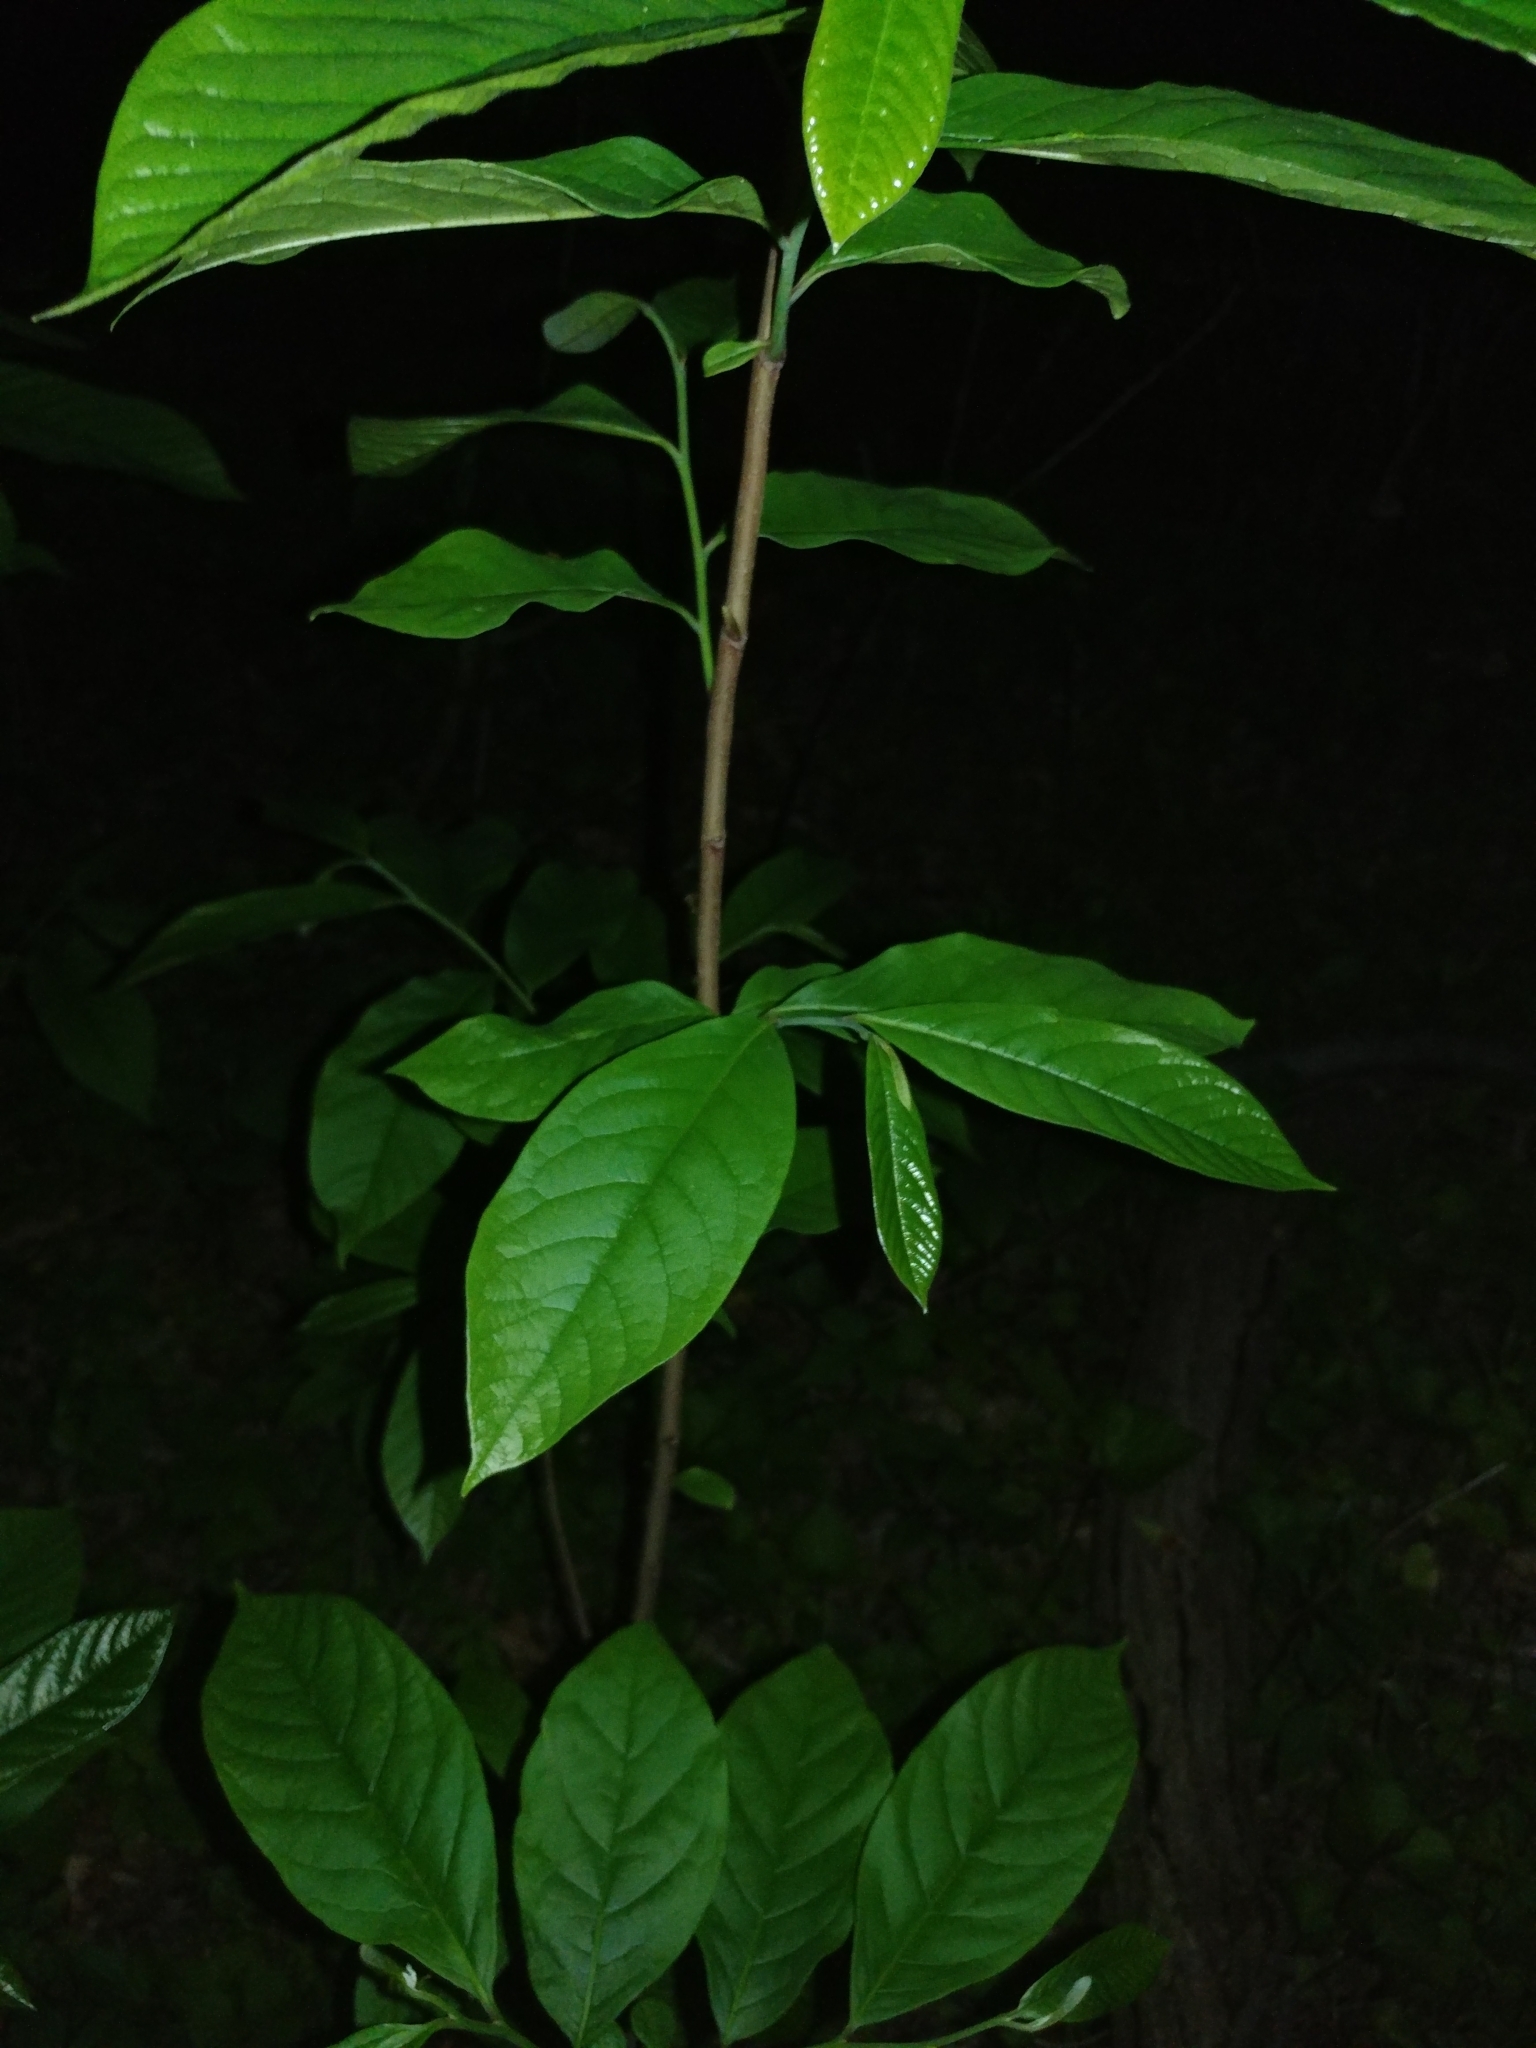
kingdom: Plantae
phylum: Tracheophyta
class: Magnoliopsida
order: Magnoliales
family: Annonaceae
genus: Asimina
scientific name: Asimina triloba
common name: Dog-banana
